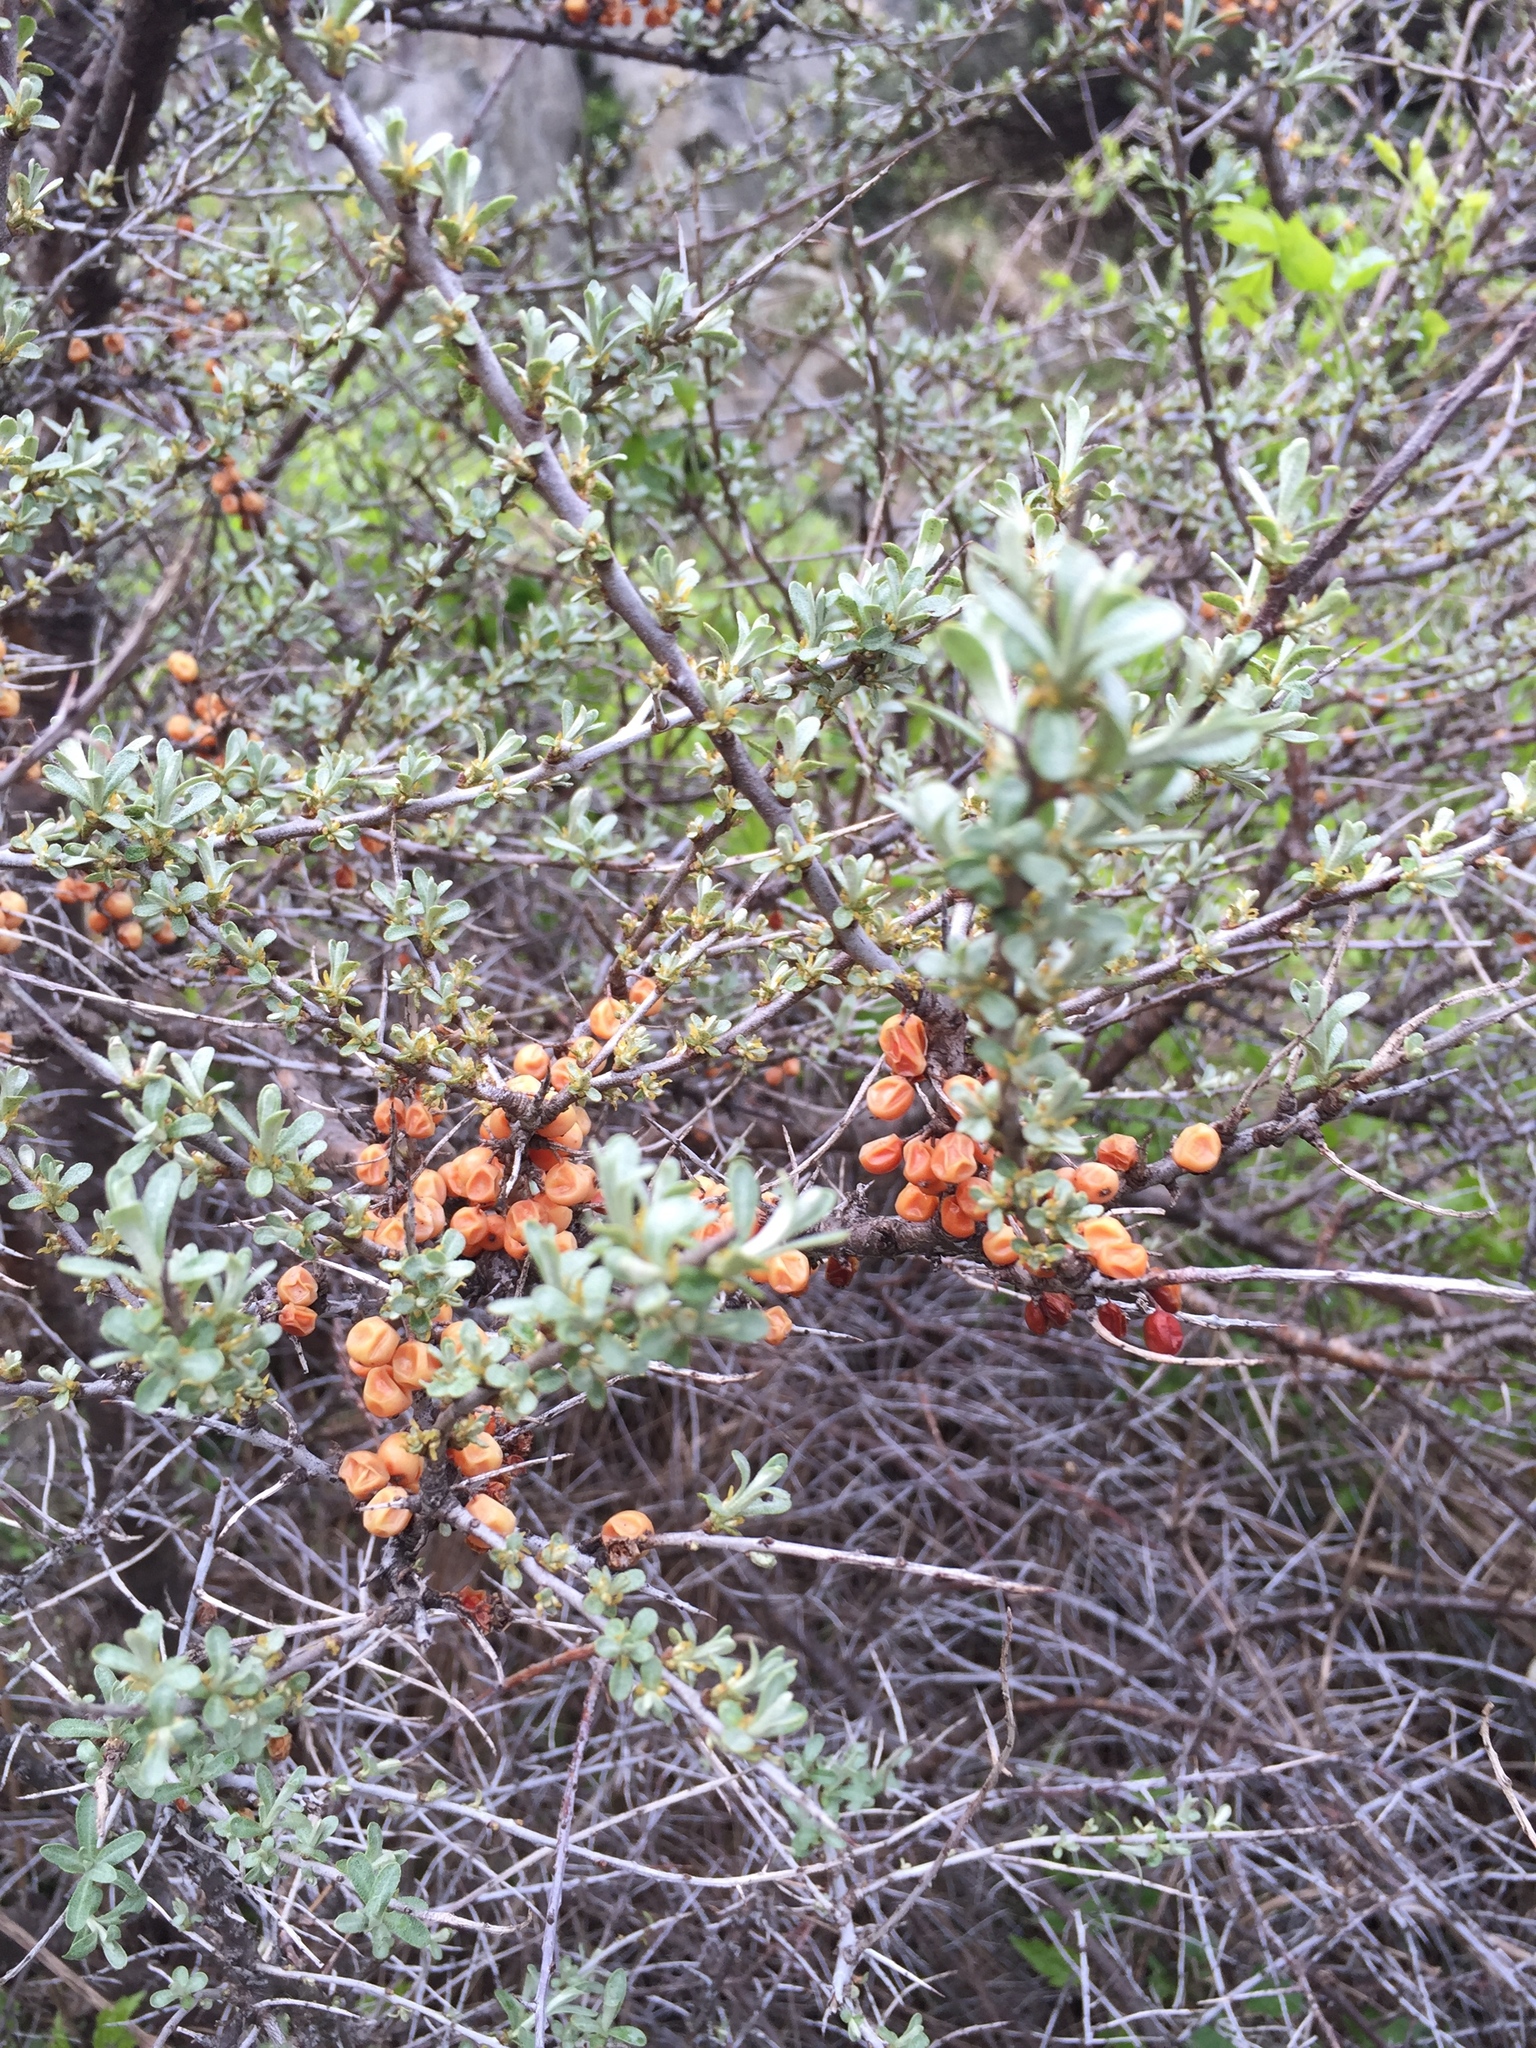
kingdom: Plantae
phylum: Tracheophyta
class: Magnoliopsida
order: Rosales
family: Elaeagnaceae
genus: Hippophae
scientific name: Hippophae rhamnoides
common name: Sea-buckthorn
